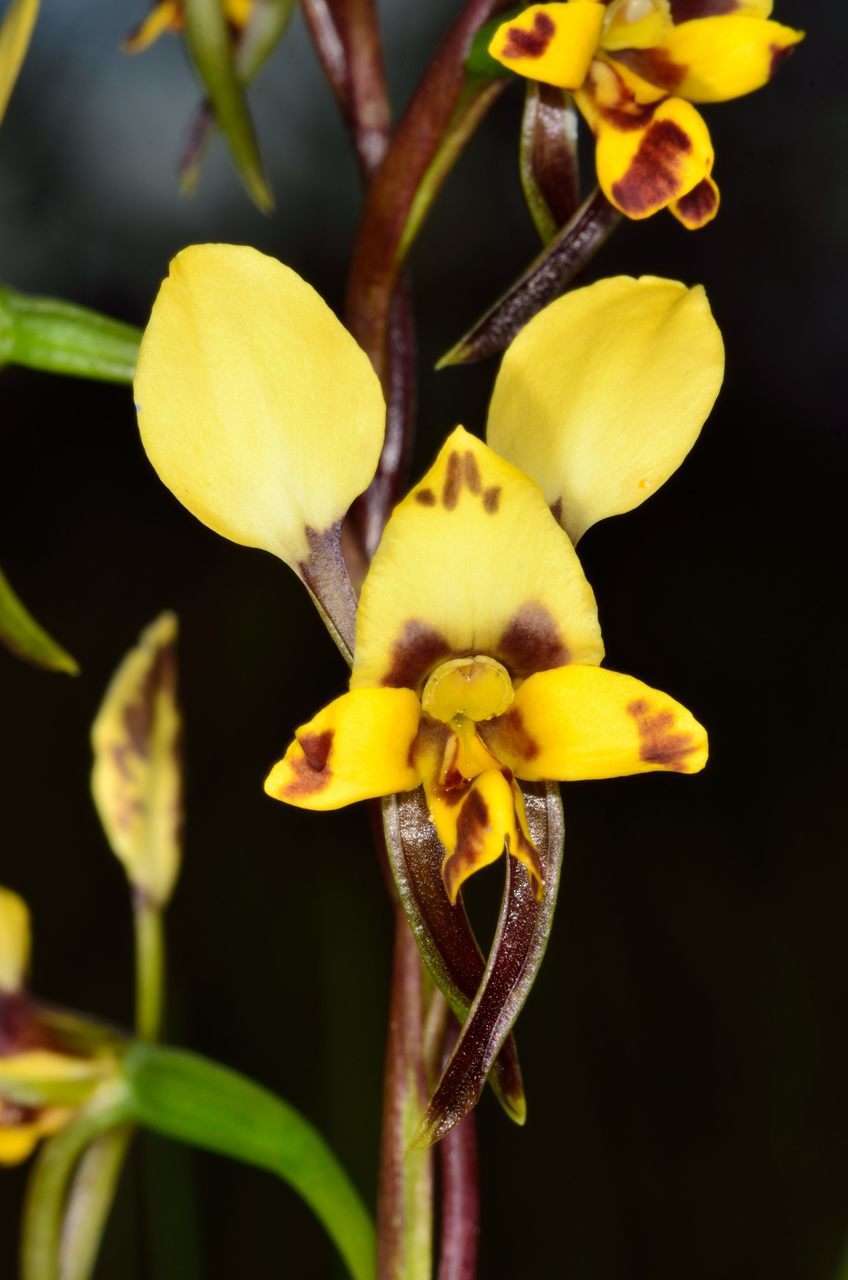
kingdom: Plantae
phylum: Tracheophyta
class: Liliopsida
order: Asparagales
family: Orchidaceae
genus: Diuris
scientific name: Diuris pardina
